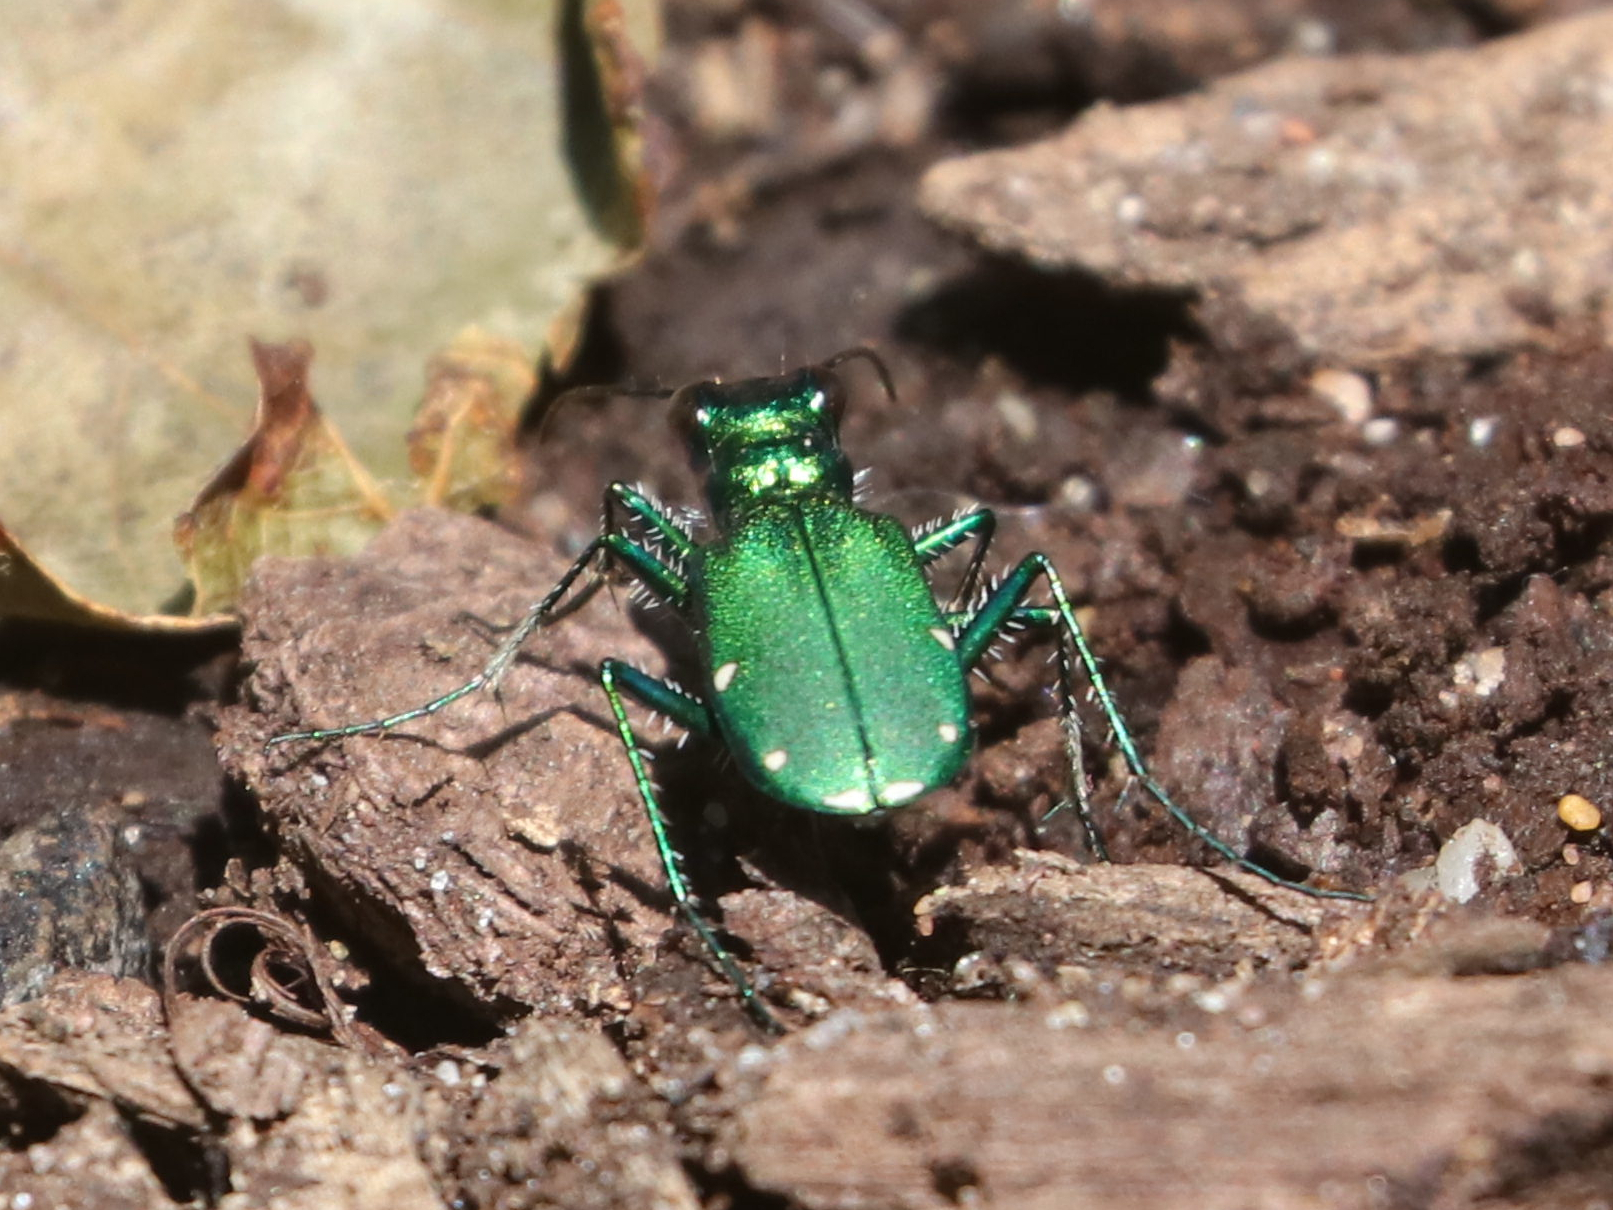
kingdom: Animalia
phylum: Arthropoda
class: Insecta
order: Coleoptera
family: Carabidae
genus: Cicindela
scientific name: Cicindela sexguttata
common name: Six-spotted tiger beetle
